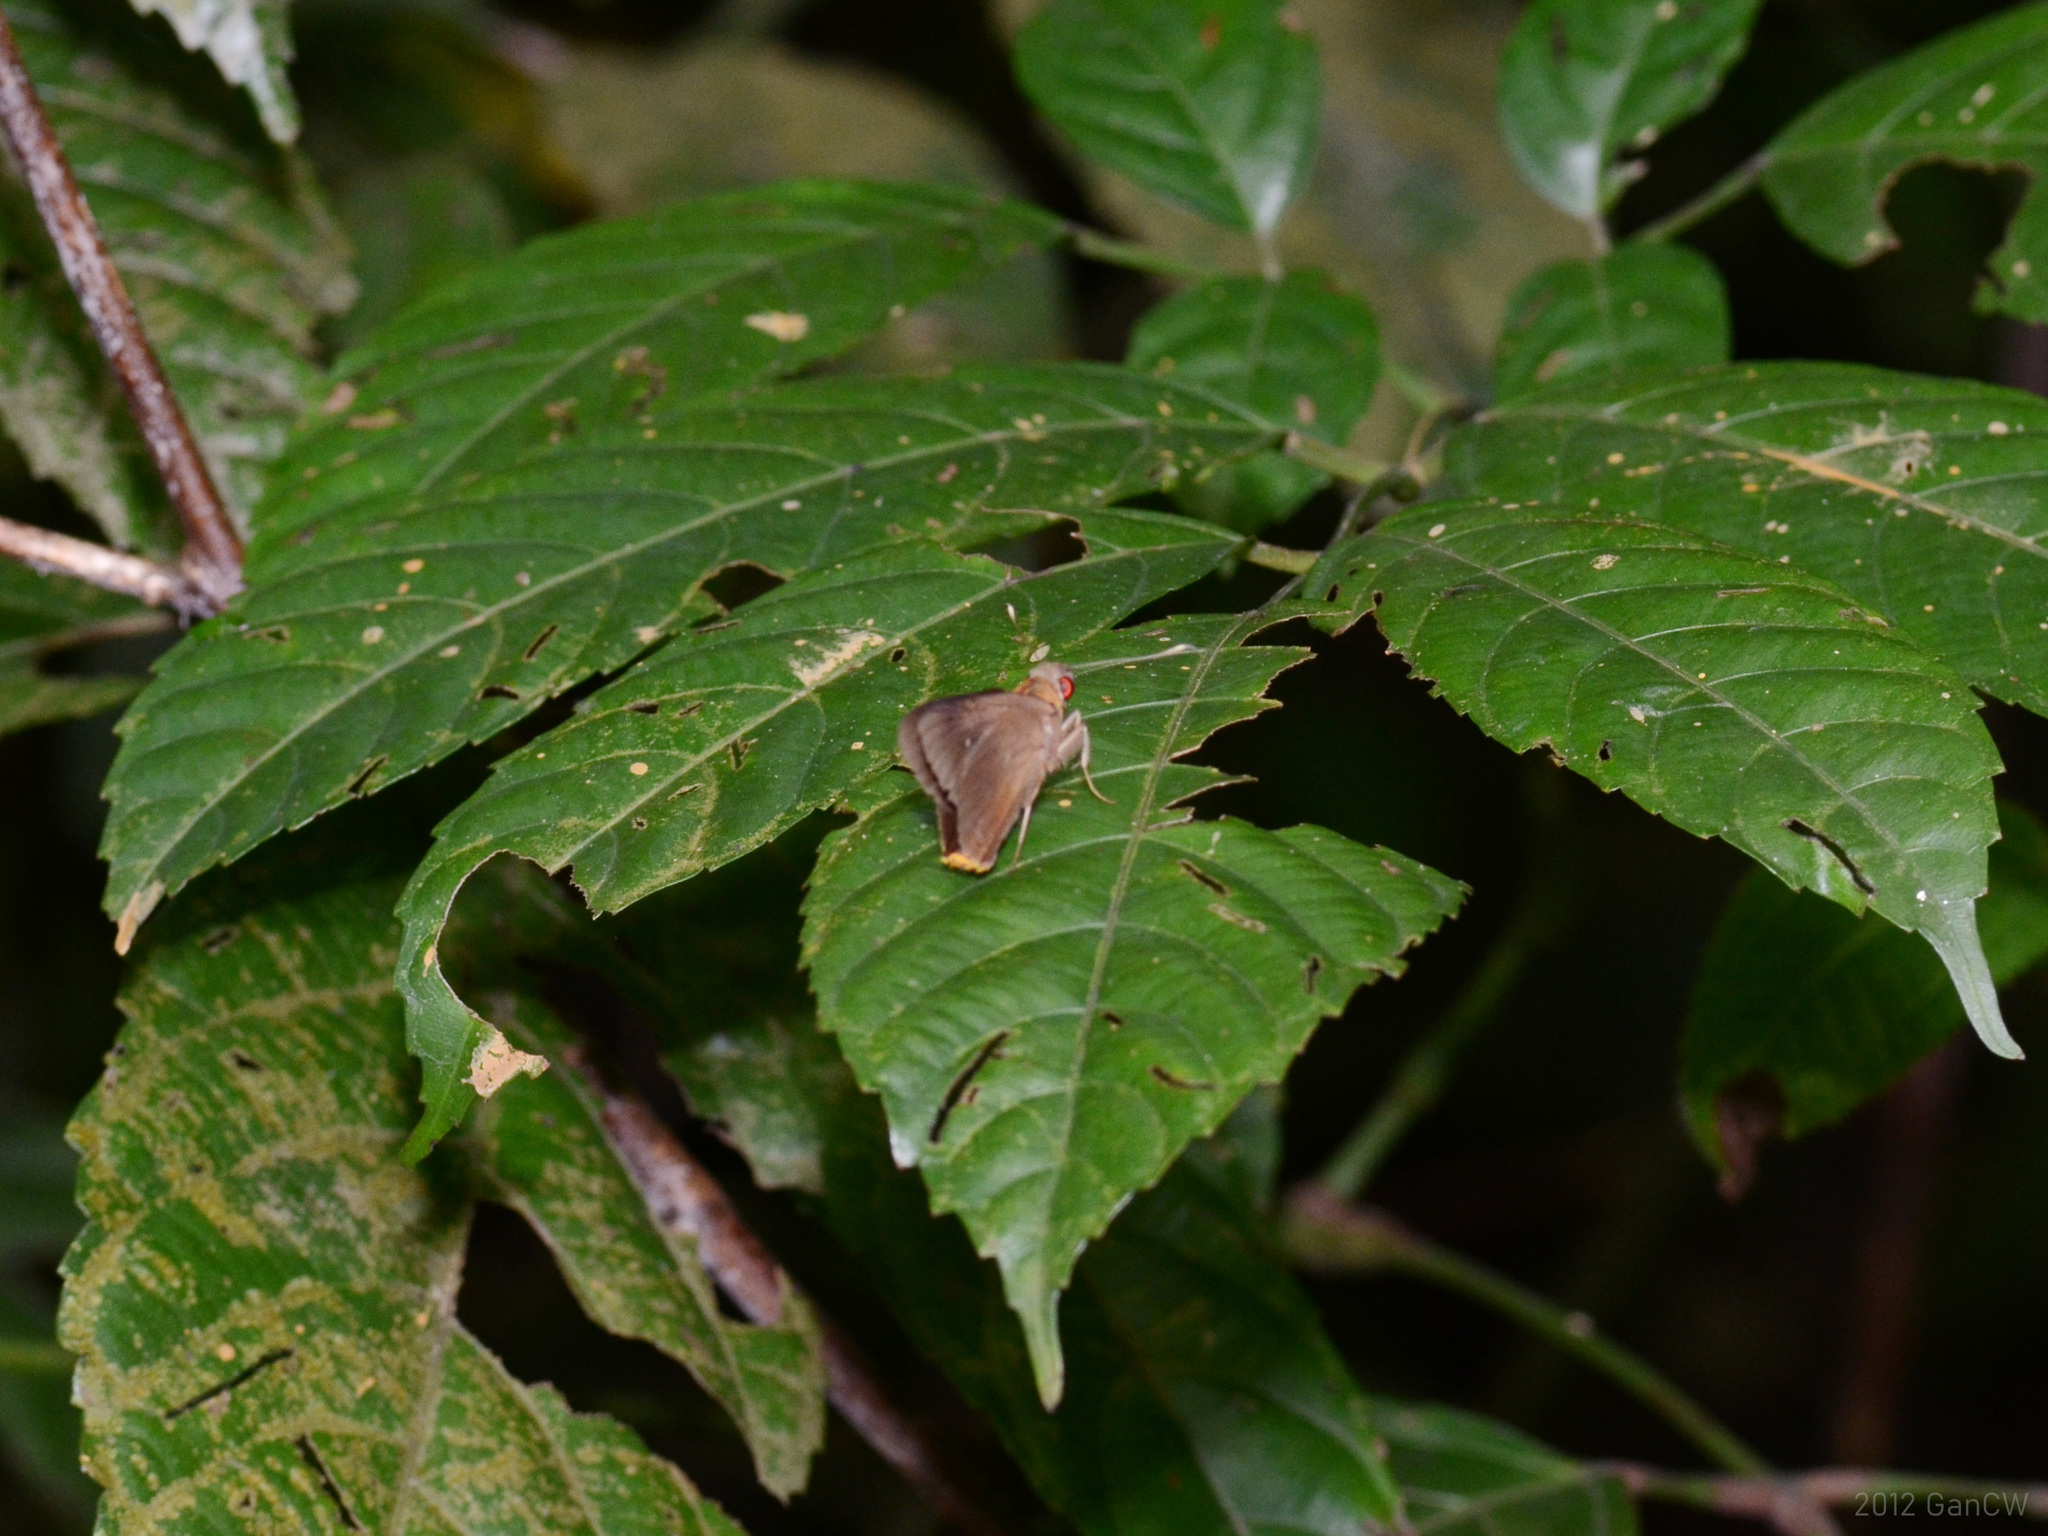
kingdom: Animalia
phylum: Arthropoda
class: Insecta
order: Lepidoptera
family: Hesperiidae
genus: Zela
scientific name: Zela
